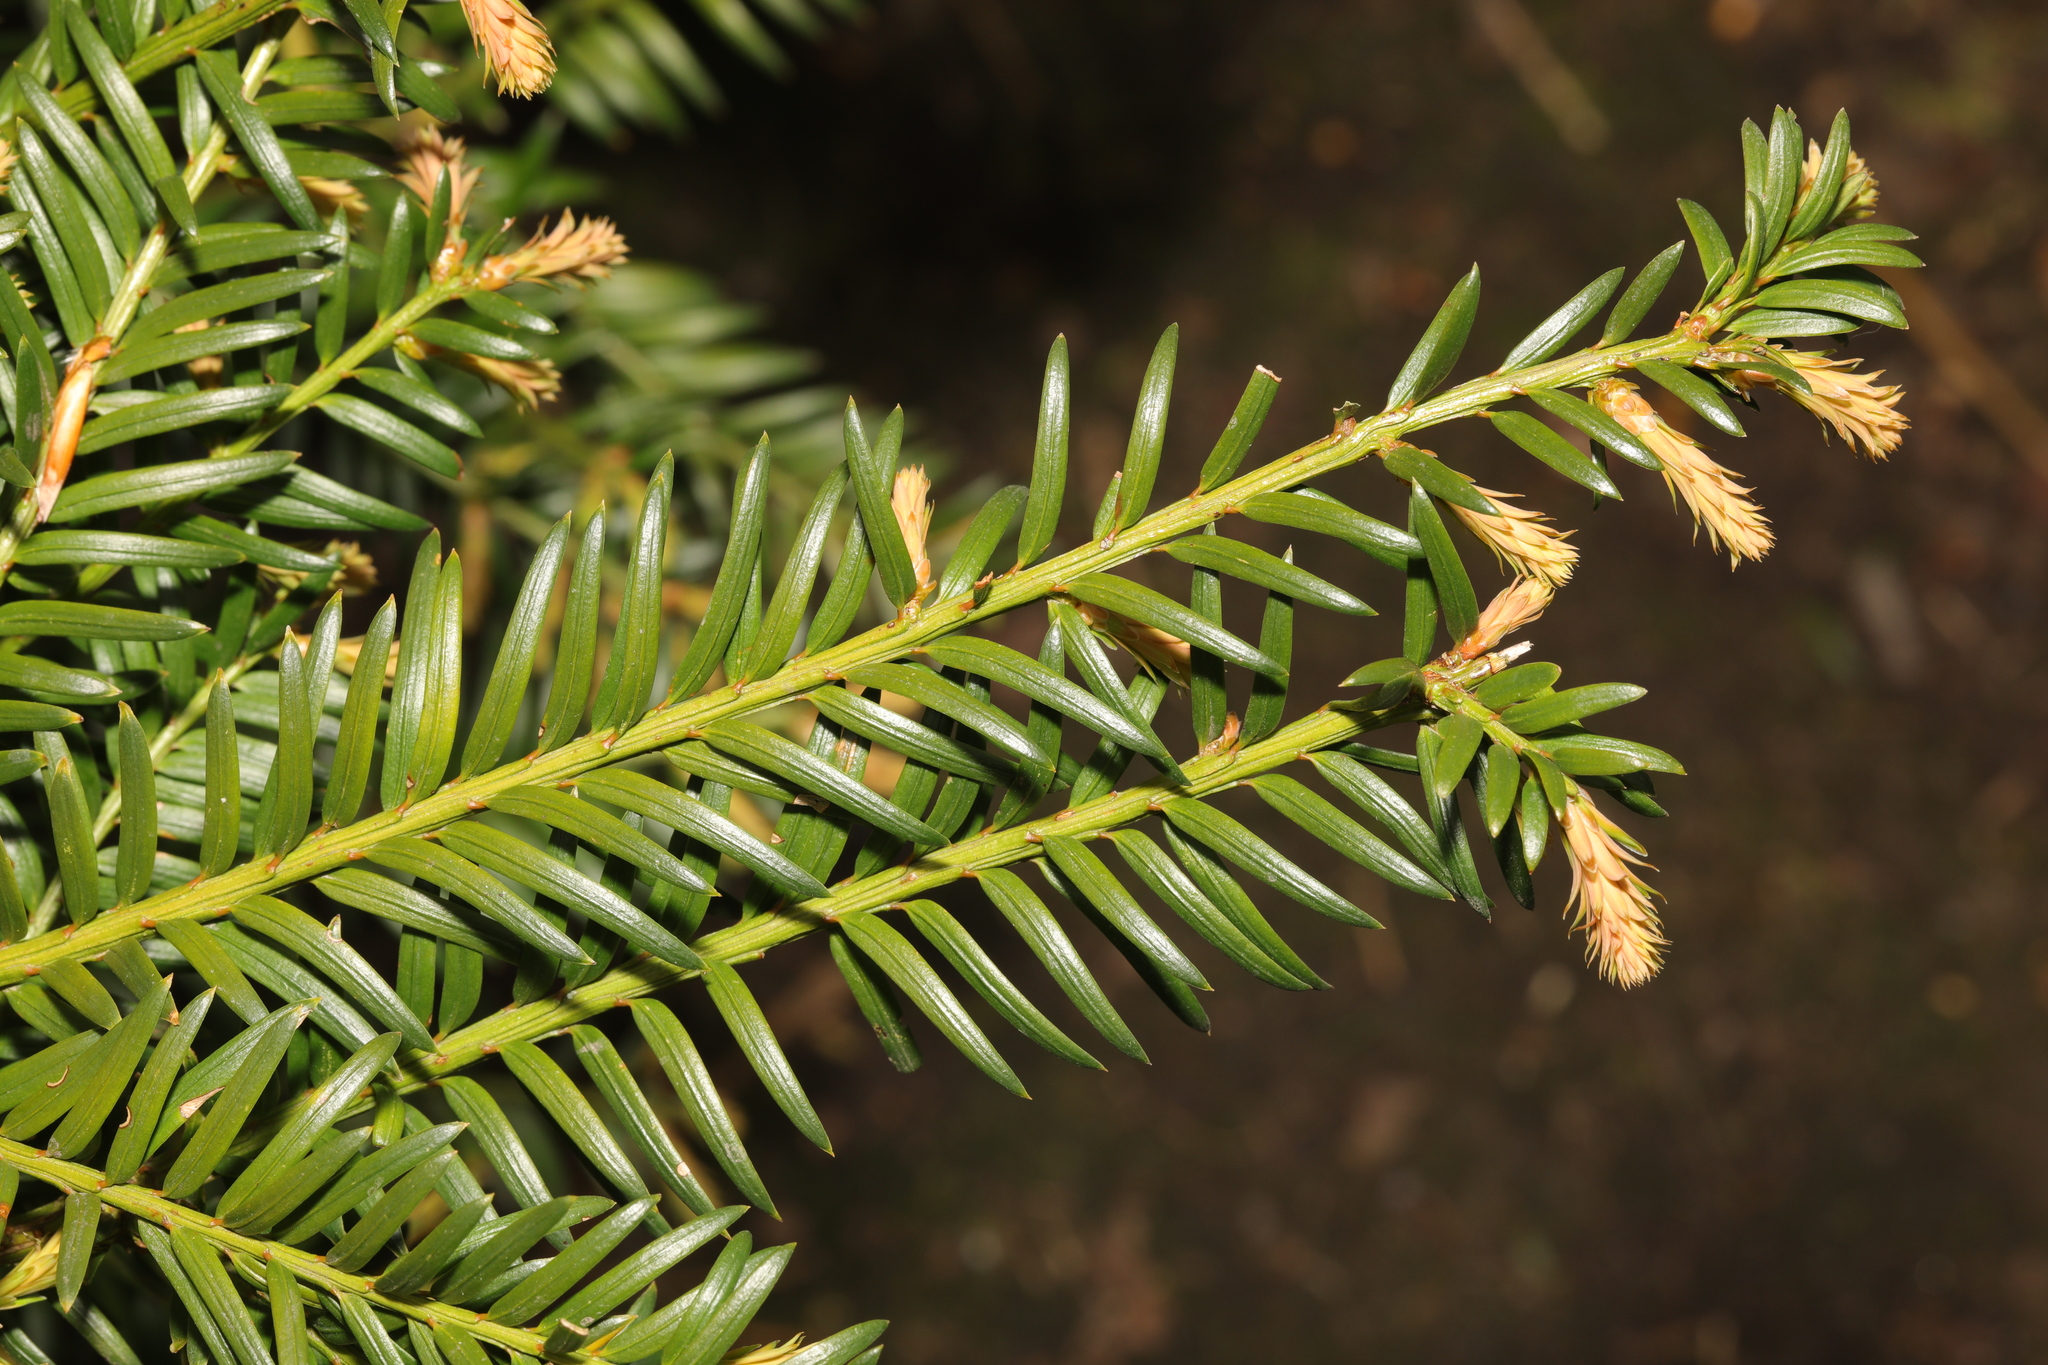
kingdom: Plantae
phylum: Tracheophyta
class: Pinopsida
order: Pinales
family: Taxaceae
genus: Taxus
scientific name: Taxus baccata
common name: Yew
